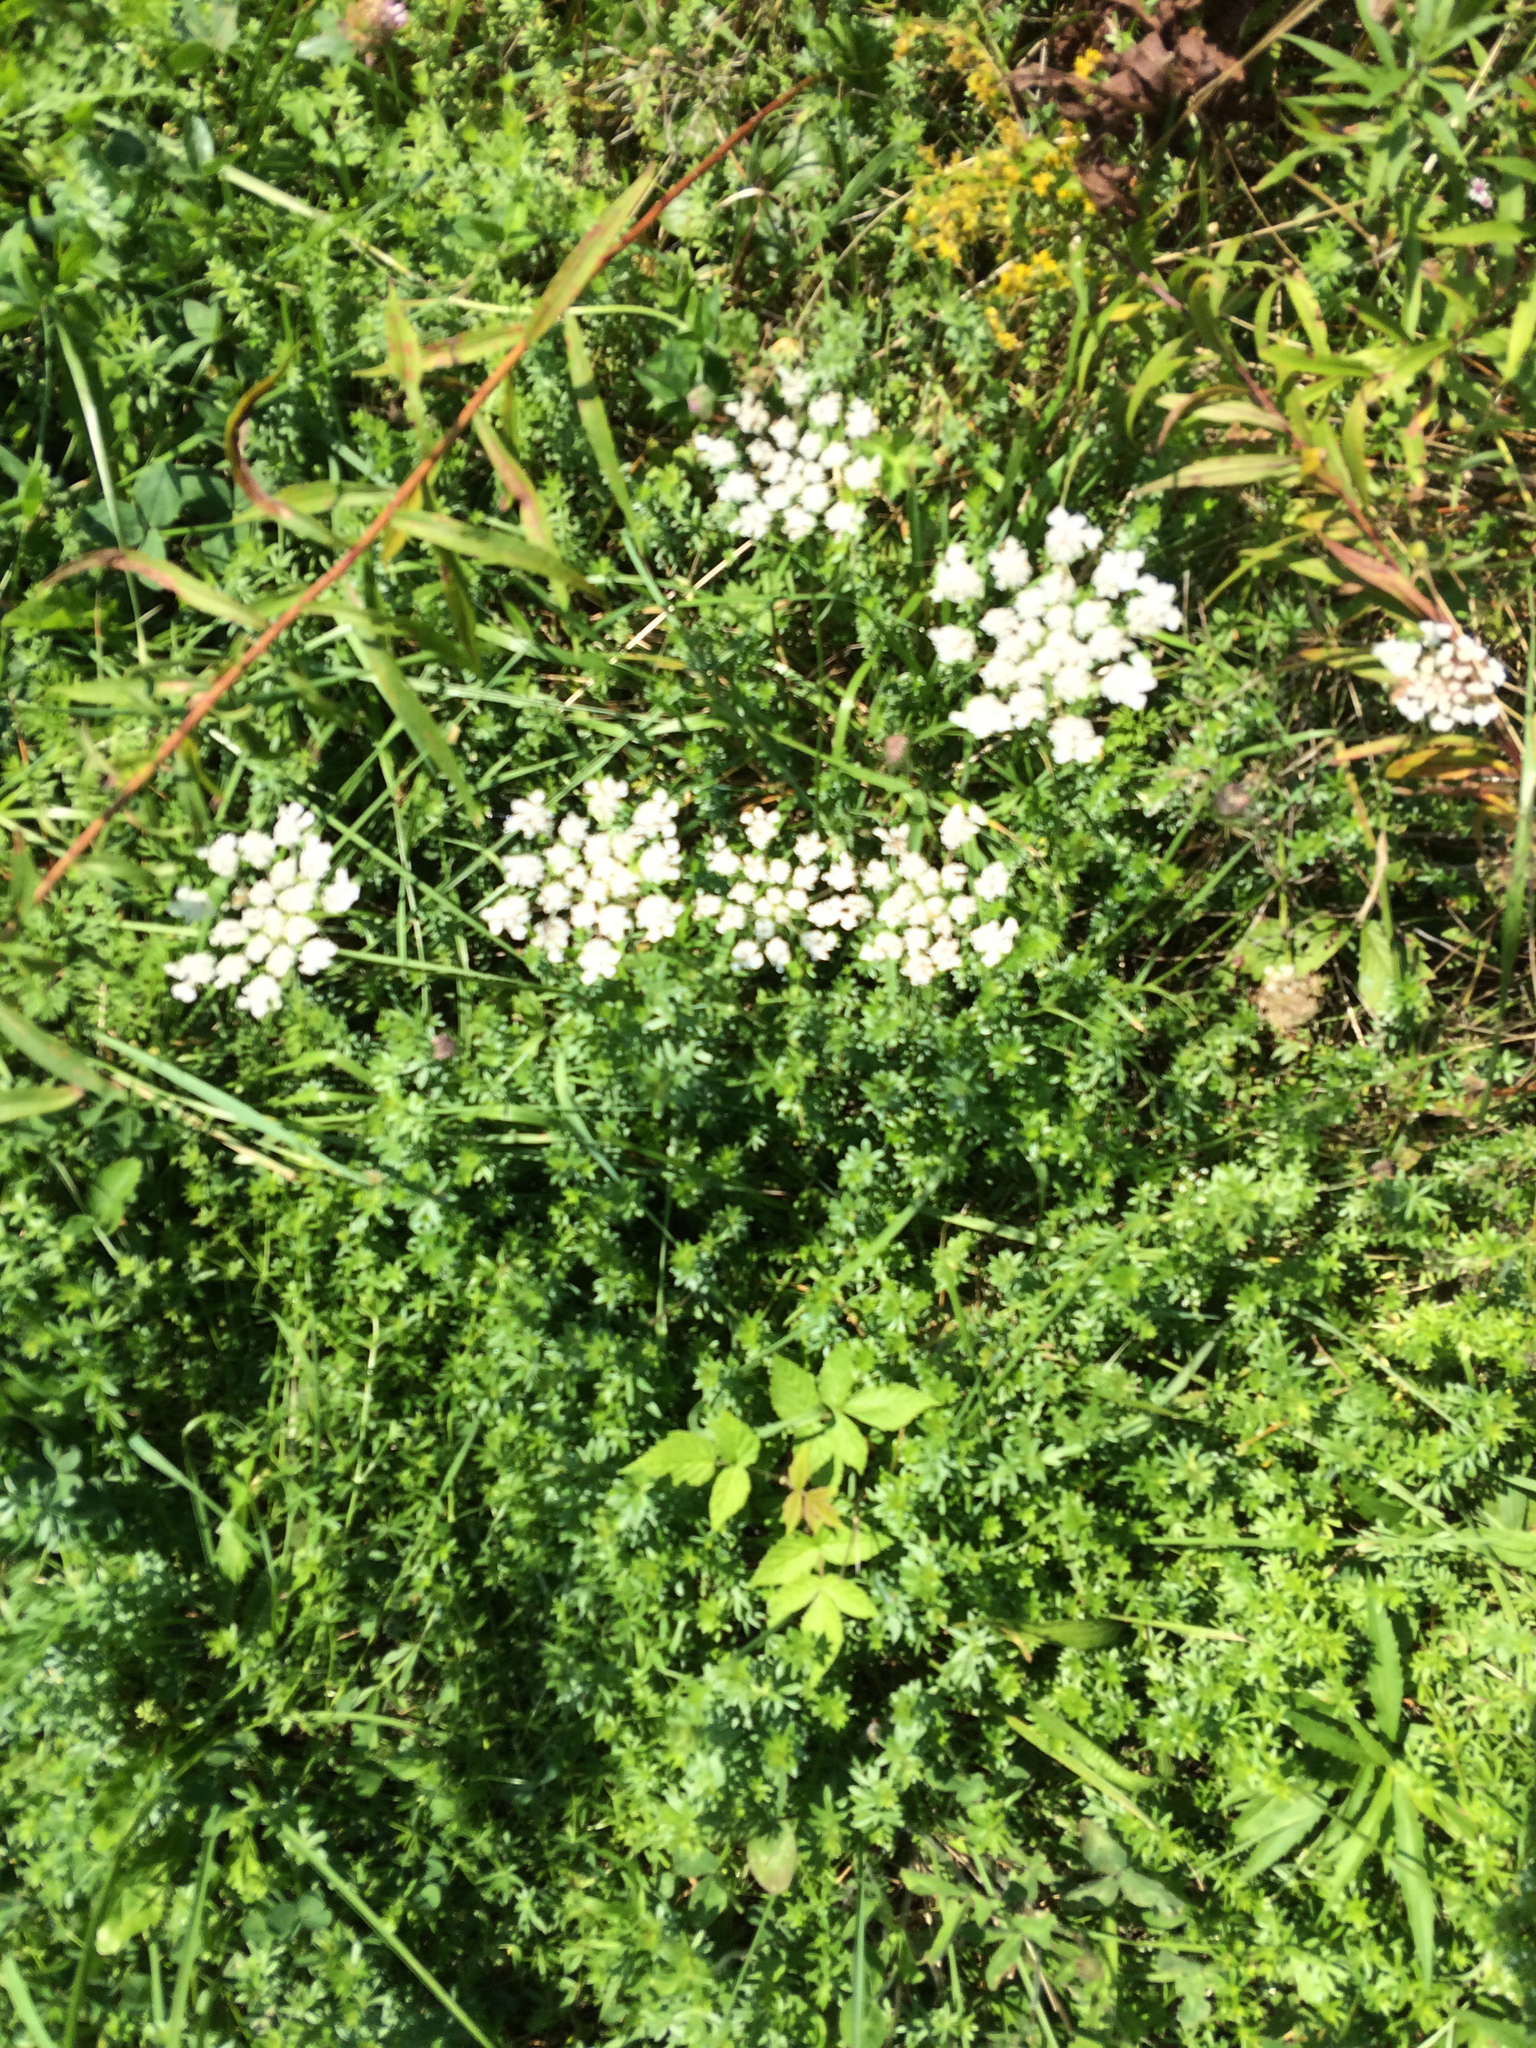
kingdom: Plantae
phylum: Tracheophyta
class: Magnoliopsida
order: Apiales
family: Apiaceae
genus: Daucus
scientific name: Daucus carota
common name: Wild carrot
